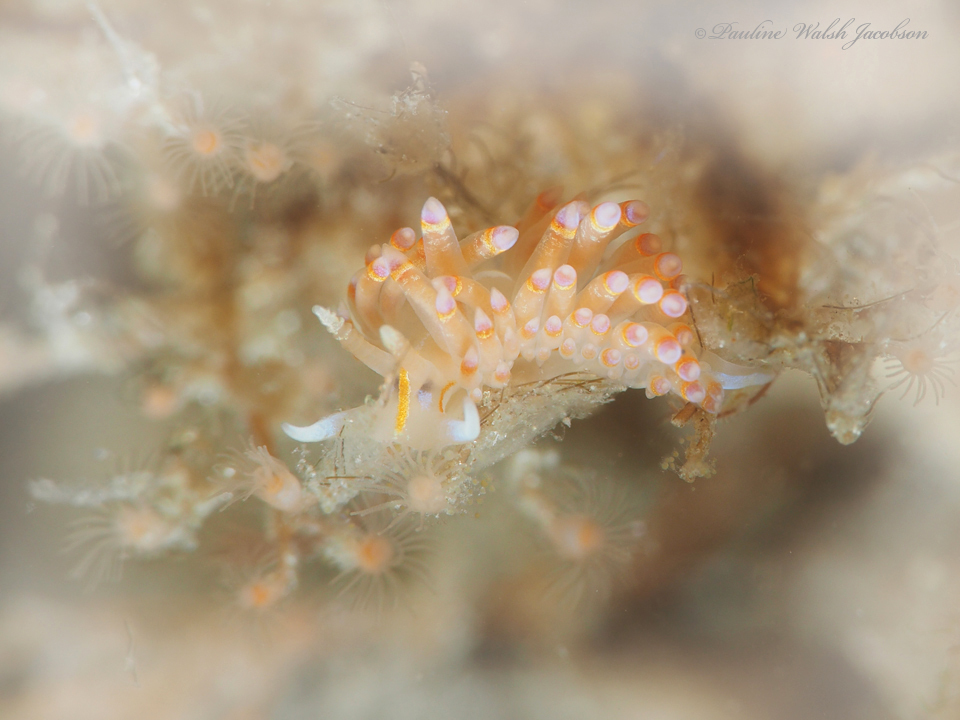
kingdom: Animalia
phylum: Mollusca
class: Gastropoda
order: Nudibranchia
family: Myrrhinidae
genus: Dondice
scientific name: Dondice jupiteriensis
